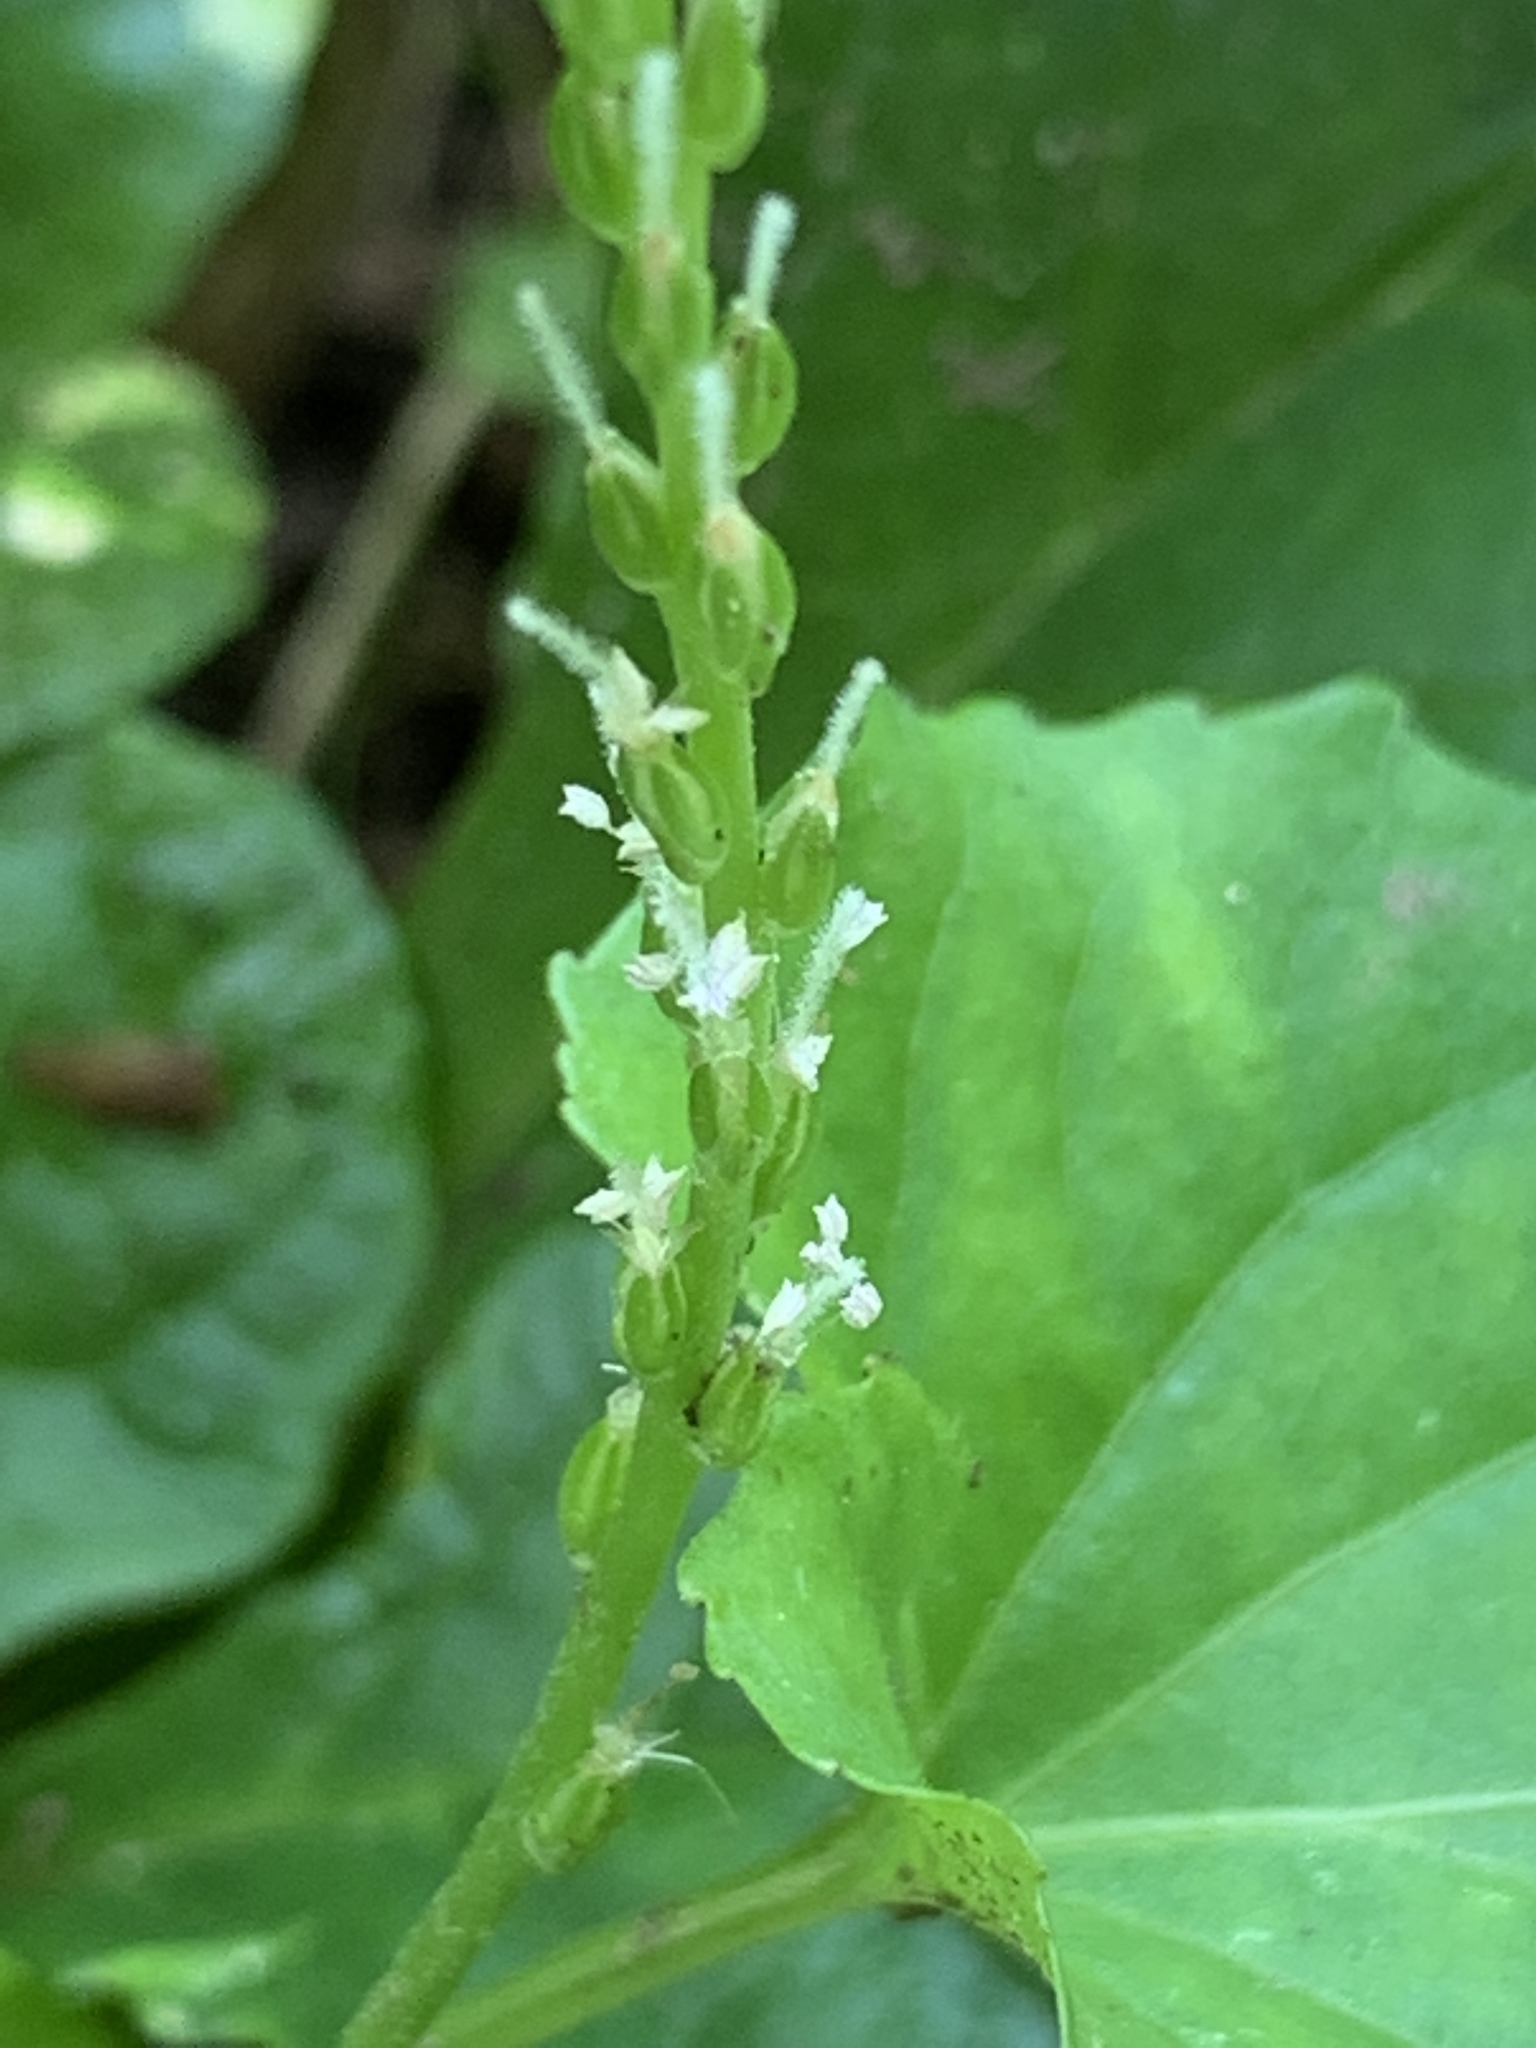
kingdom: Plantae
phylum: Tracheophyta
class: Magnoliopsida
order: Lamiales
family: Plantaginaceae
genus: Plantago
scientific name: Plantago rugelii
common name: American plantain
